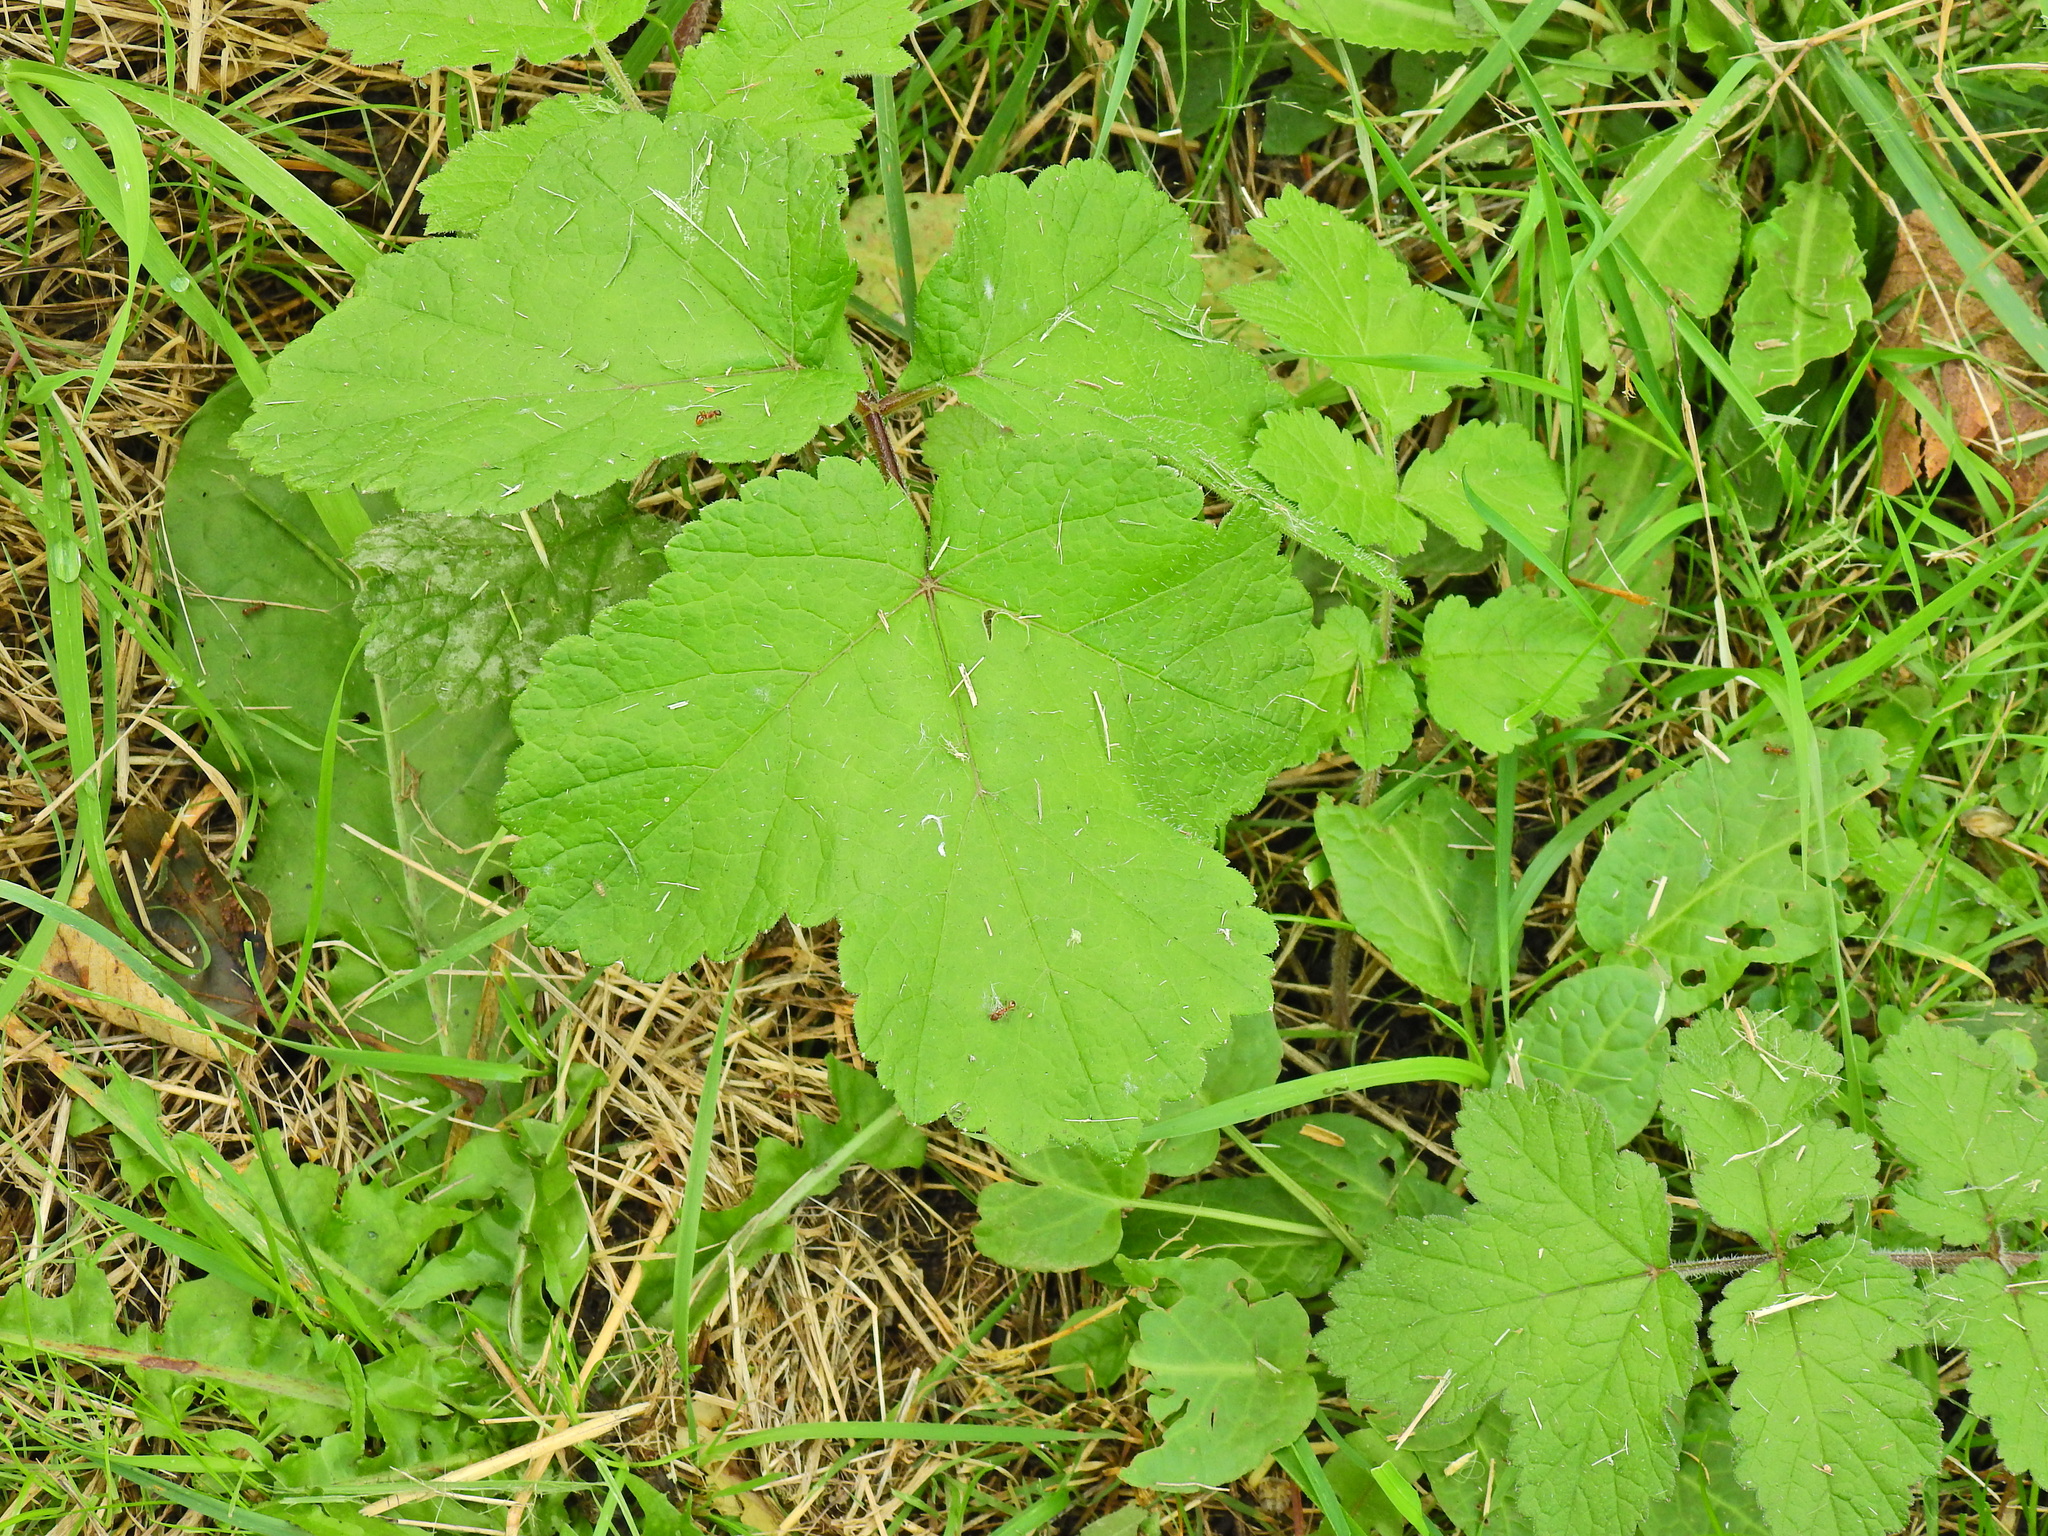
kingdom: Plantae
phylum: Tracheophyta
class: Magnoliopsida
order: Apiales
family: Apiaceae
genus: Heracleum
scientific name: Heracleum sphondylium
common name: Hogweed
